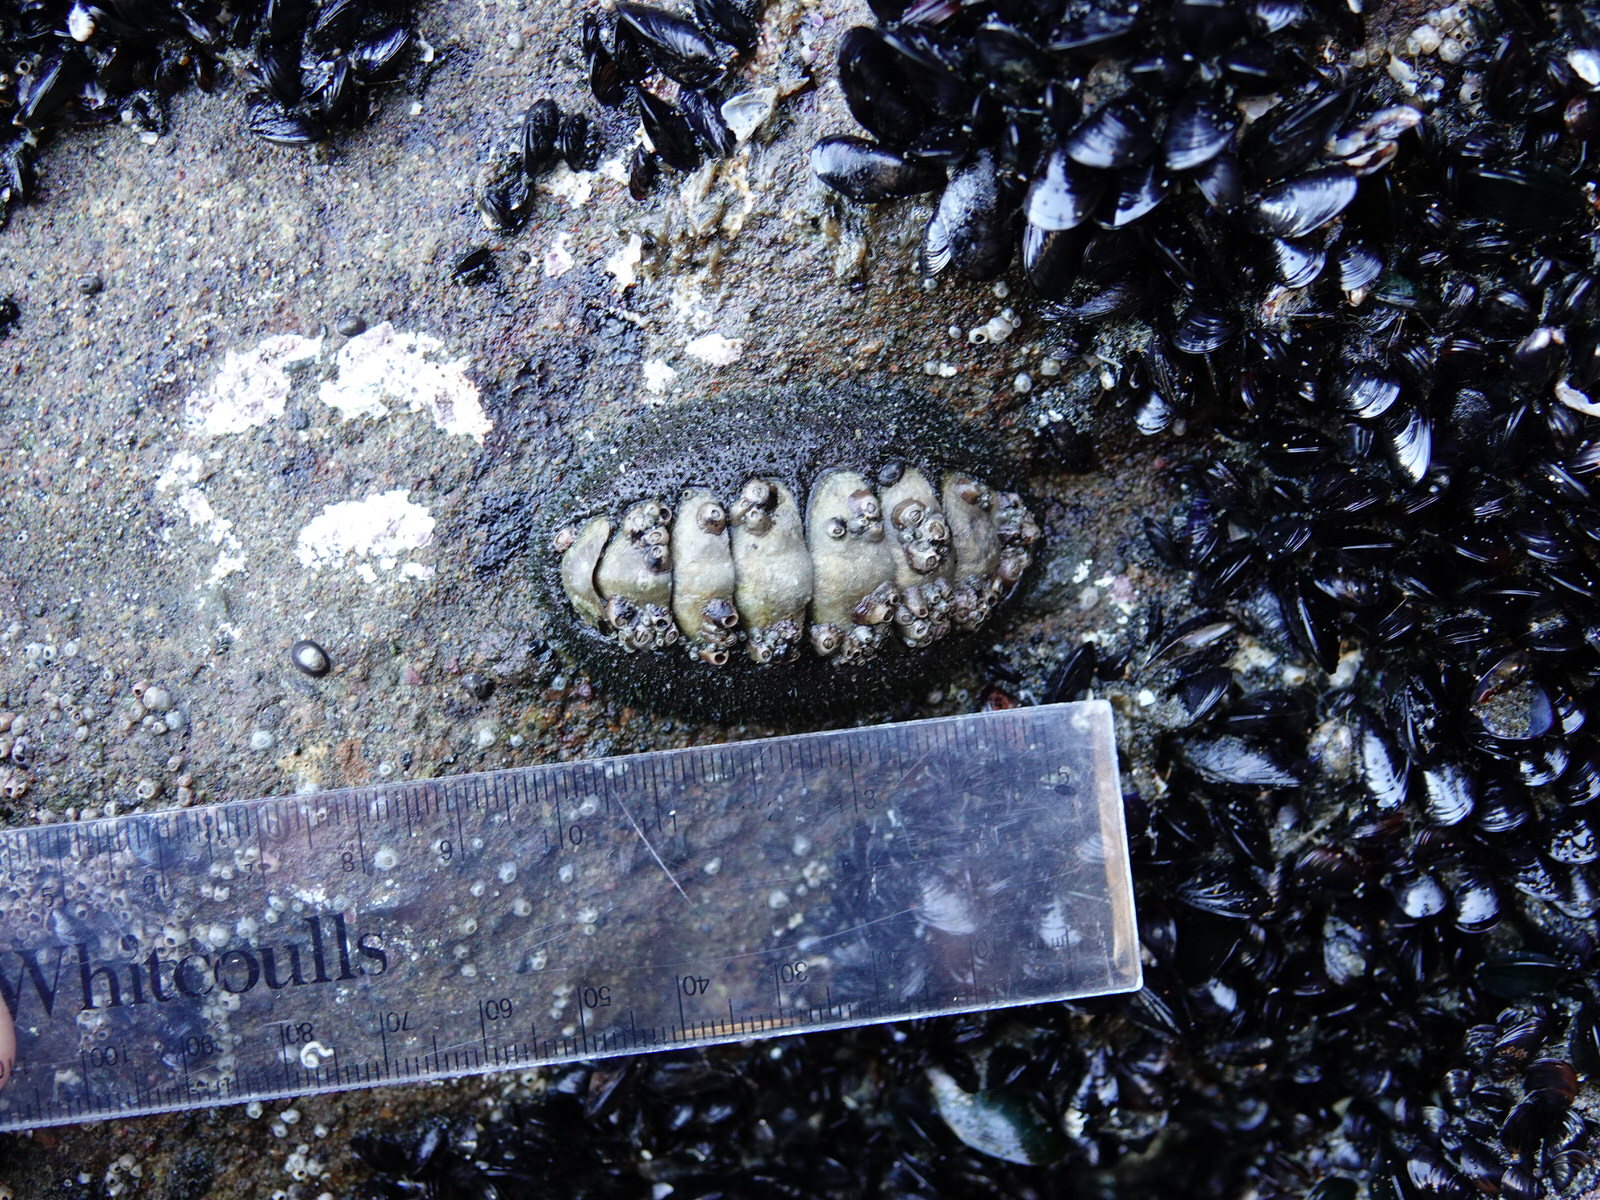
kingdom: Animalia
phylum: Mollusca
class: Polyplacophora
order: Chitonida
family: Mopaliidae
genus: Plaxiphora
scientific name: Plaxiphora obtecta
